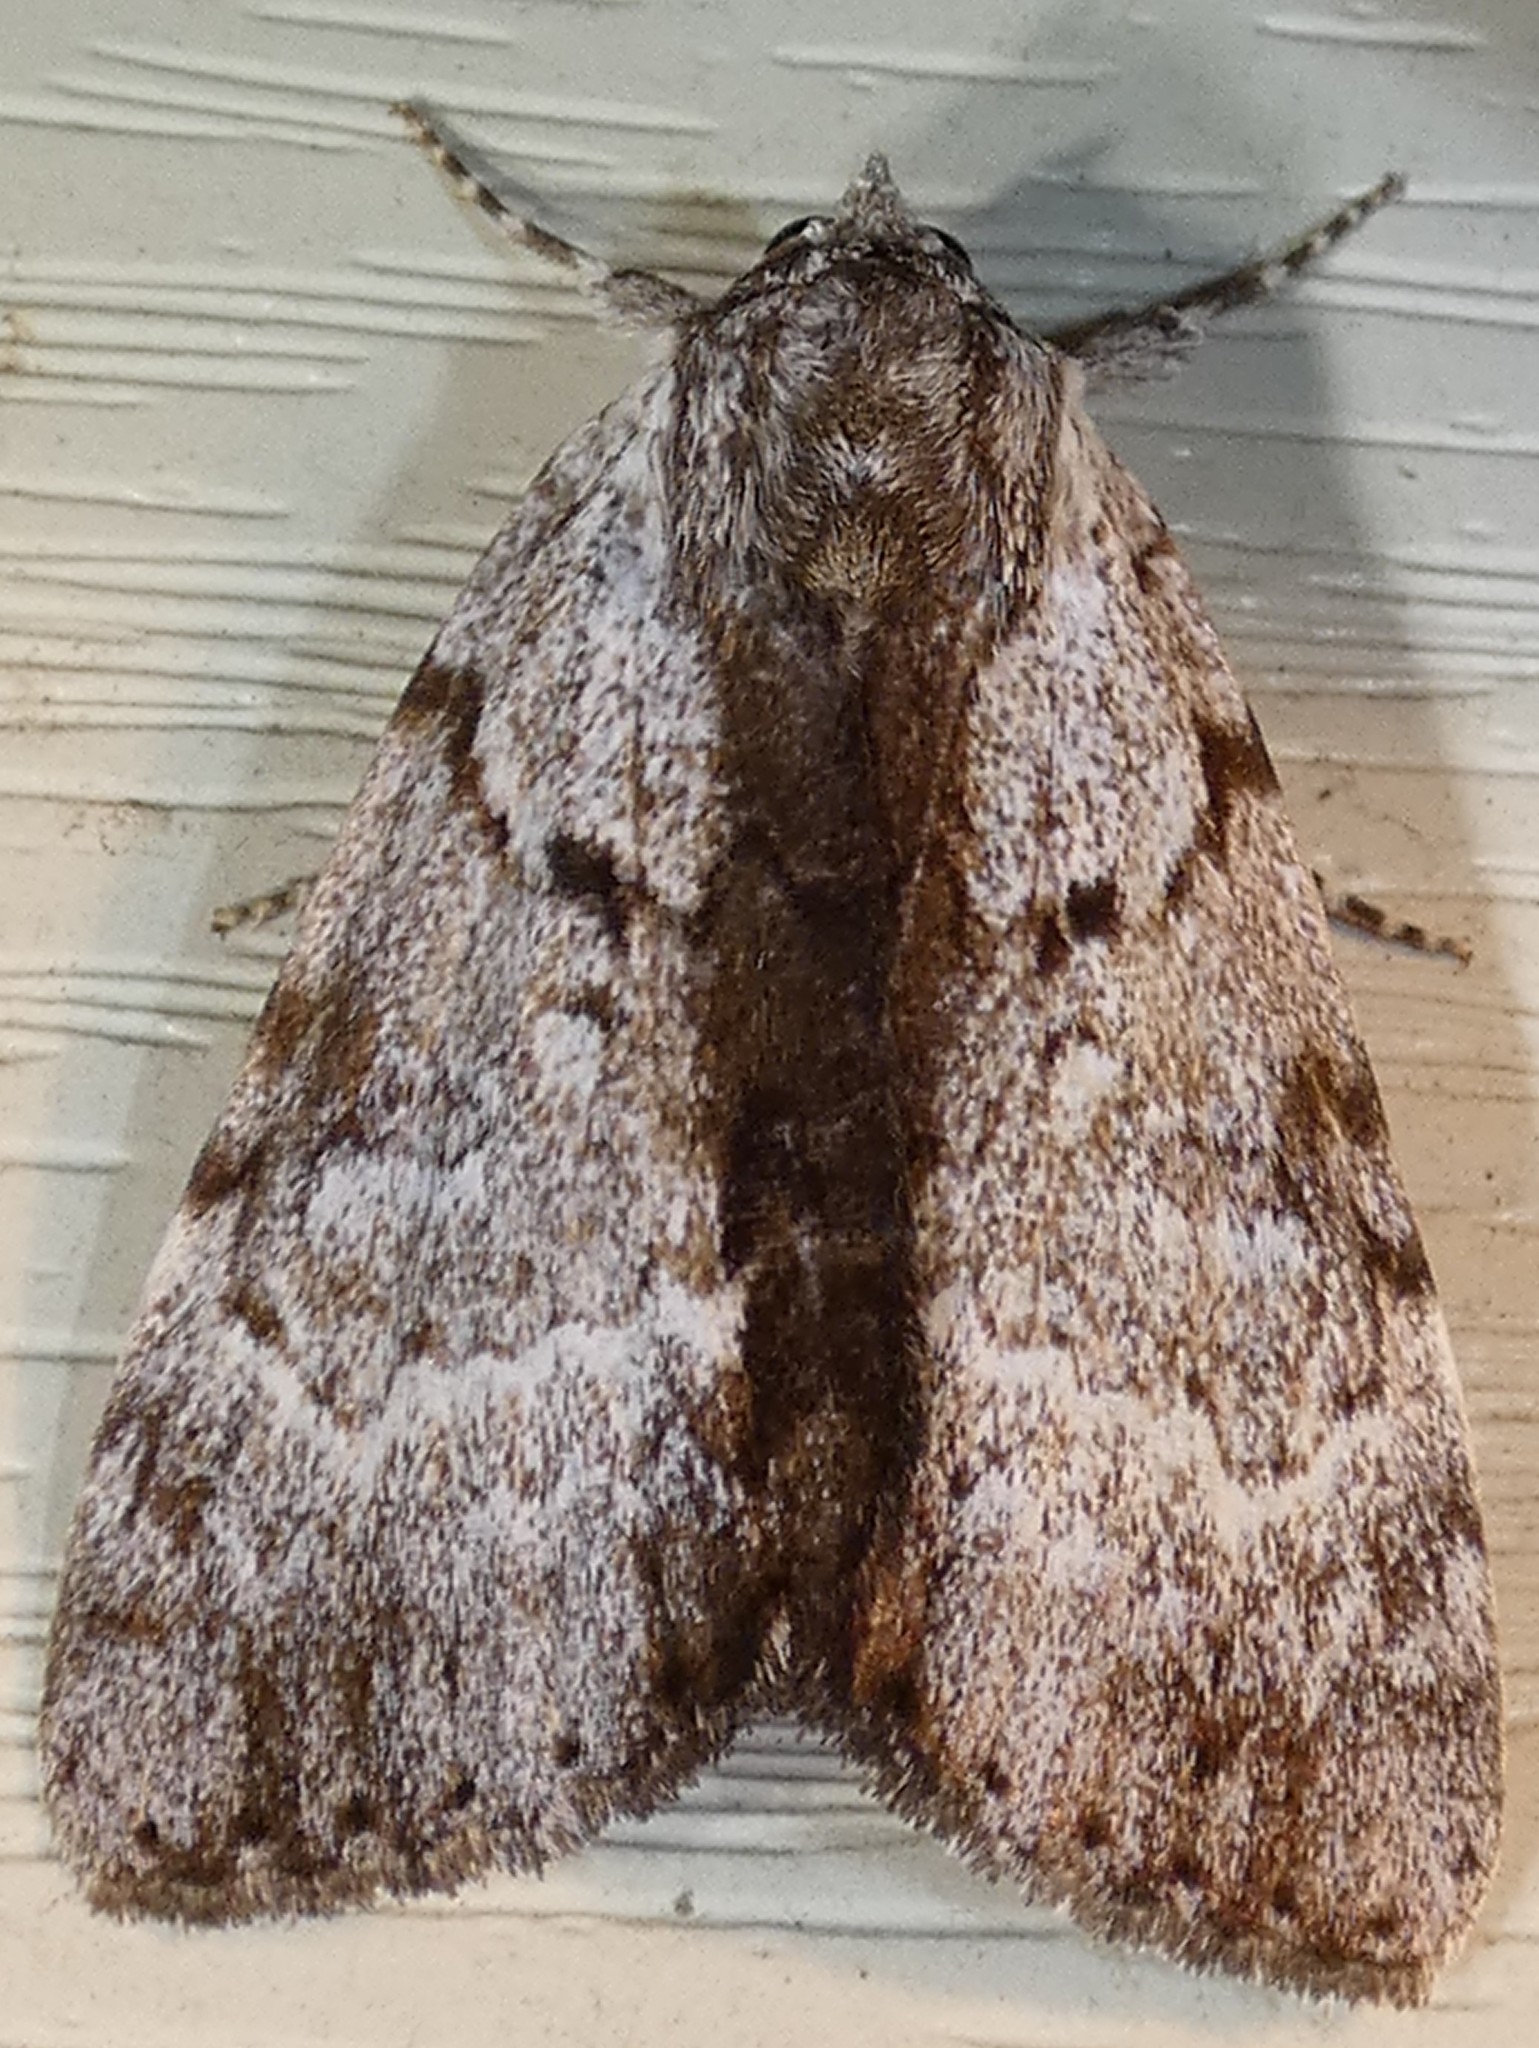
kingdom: Animalia
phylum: Arthropoda
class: Insecta
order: Lepidoptera
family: Erebidae
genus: Catocala
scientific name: Catocala andromedae
